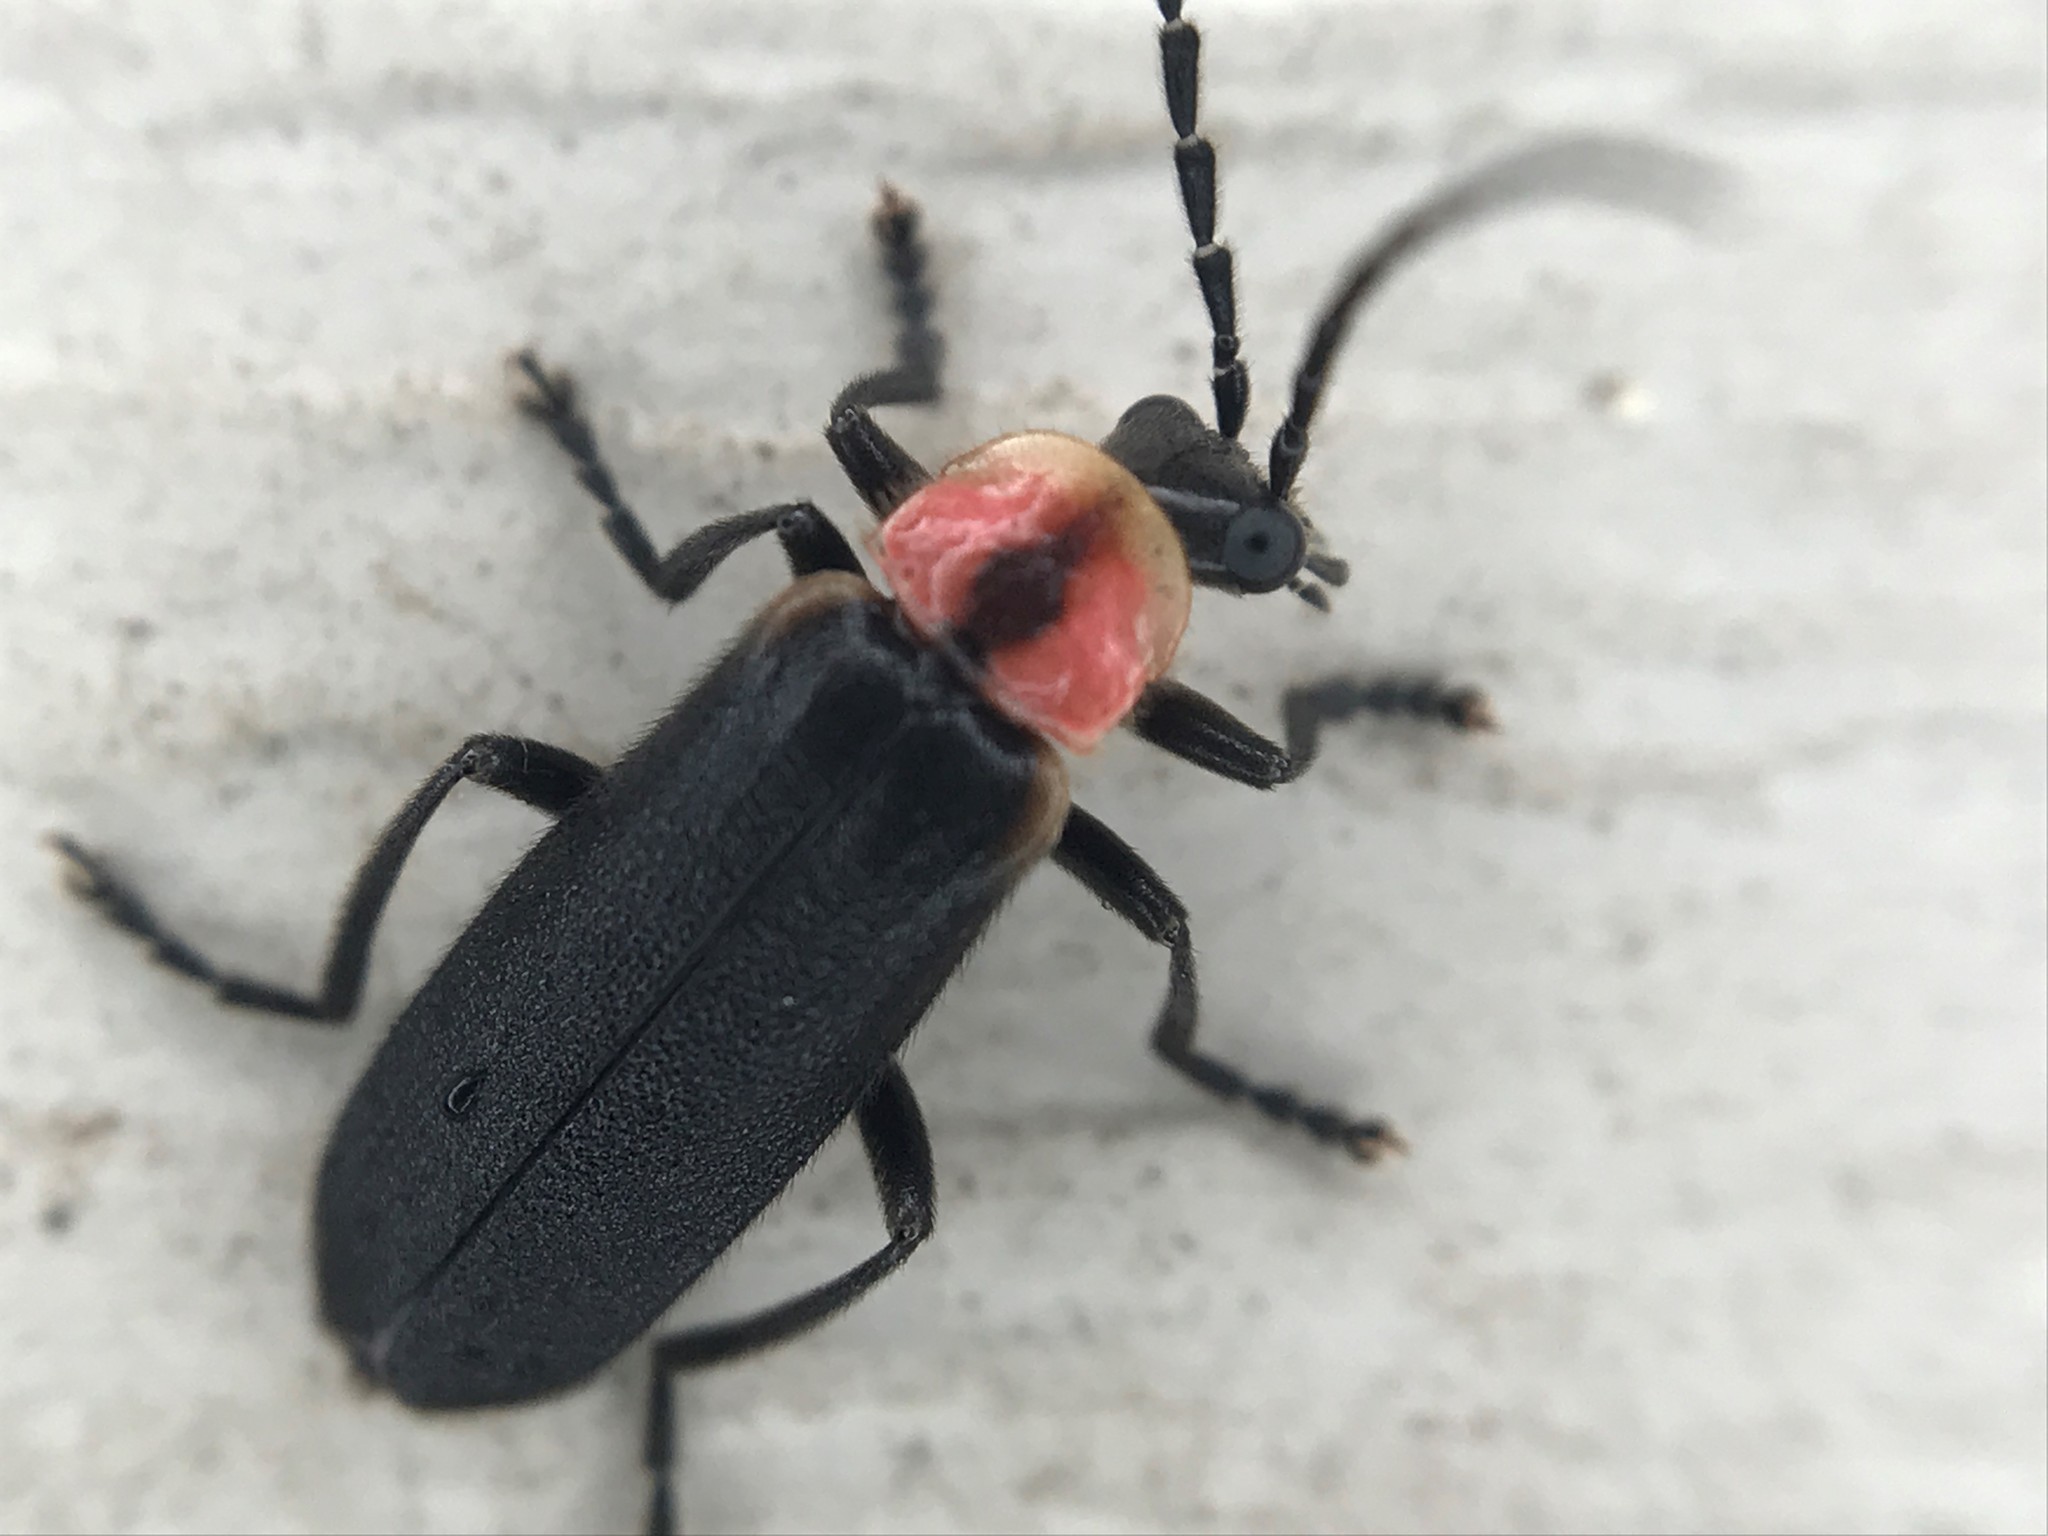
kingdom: Animalia
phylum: Arthropoda
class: Insecta
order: Coleoptera
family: Cantharidae
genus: Discodon
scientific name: Discodon planicolle
